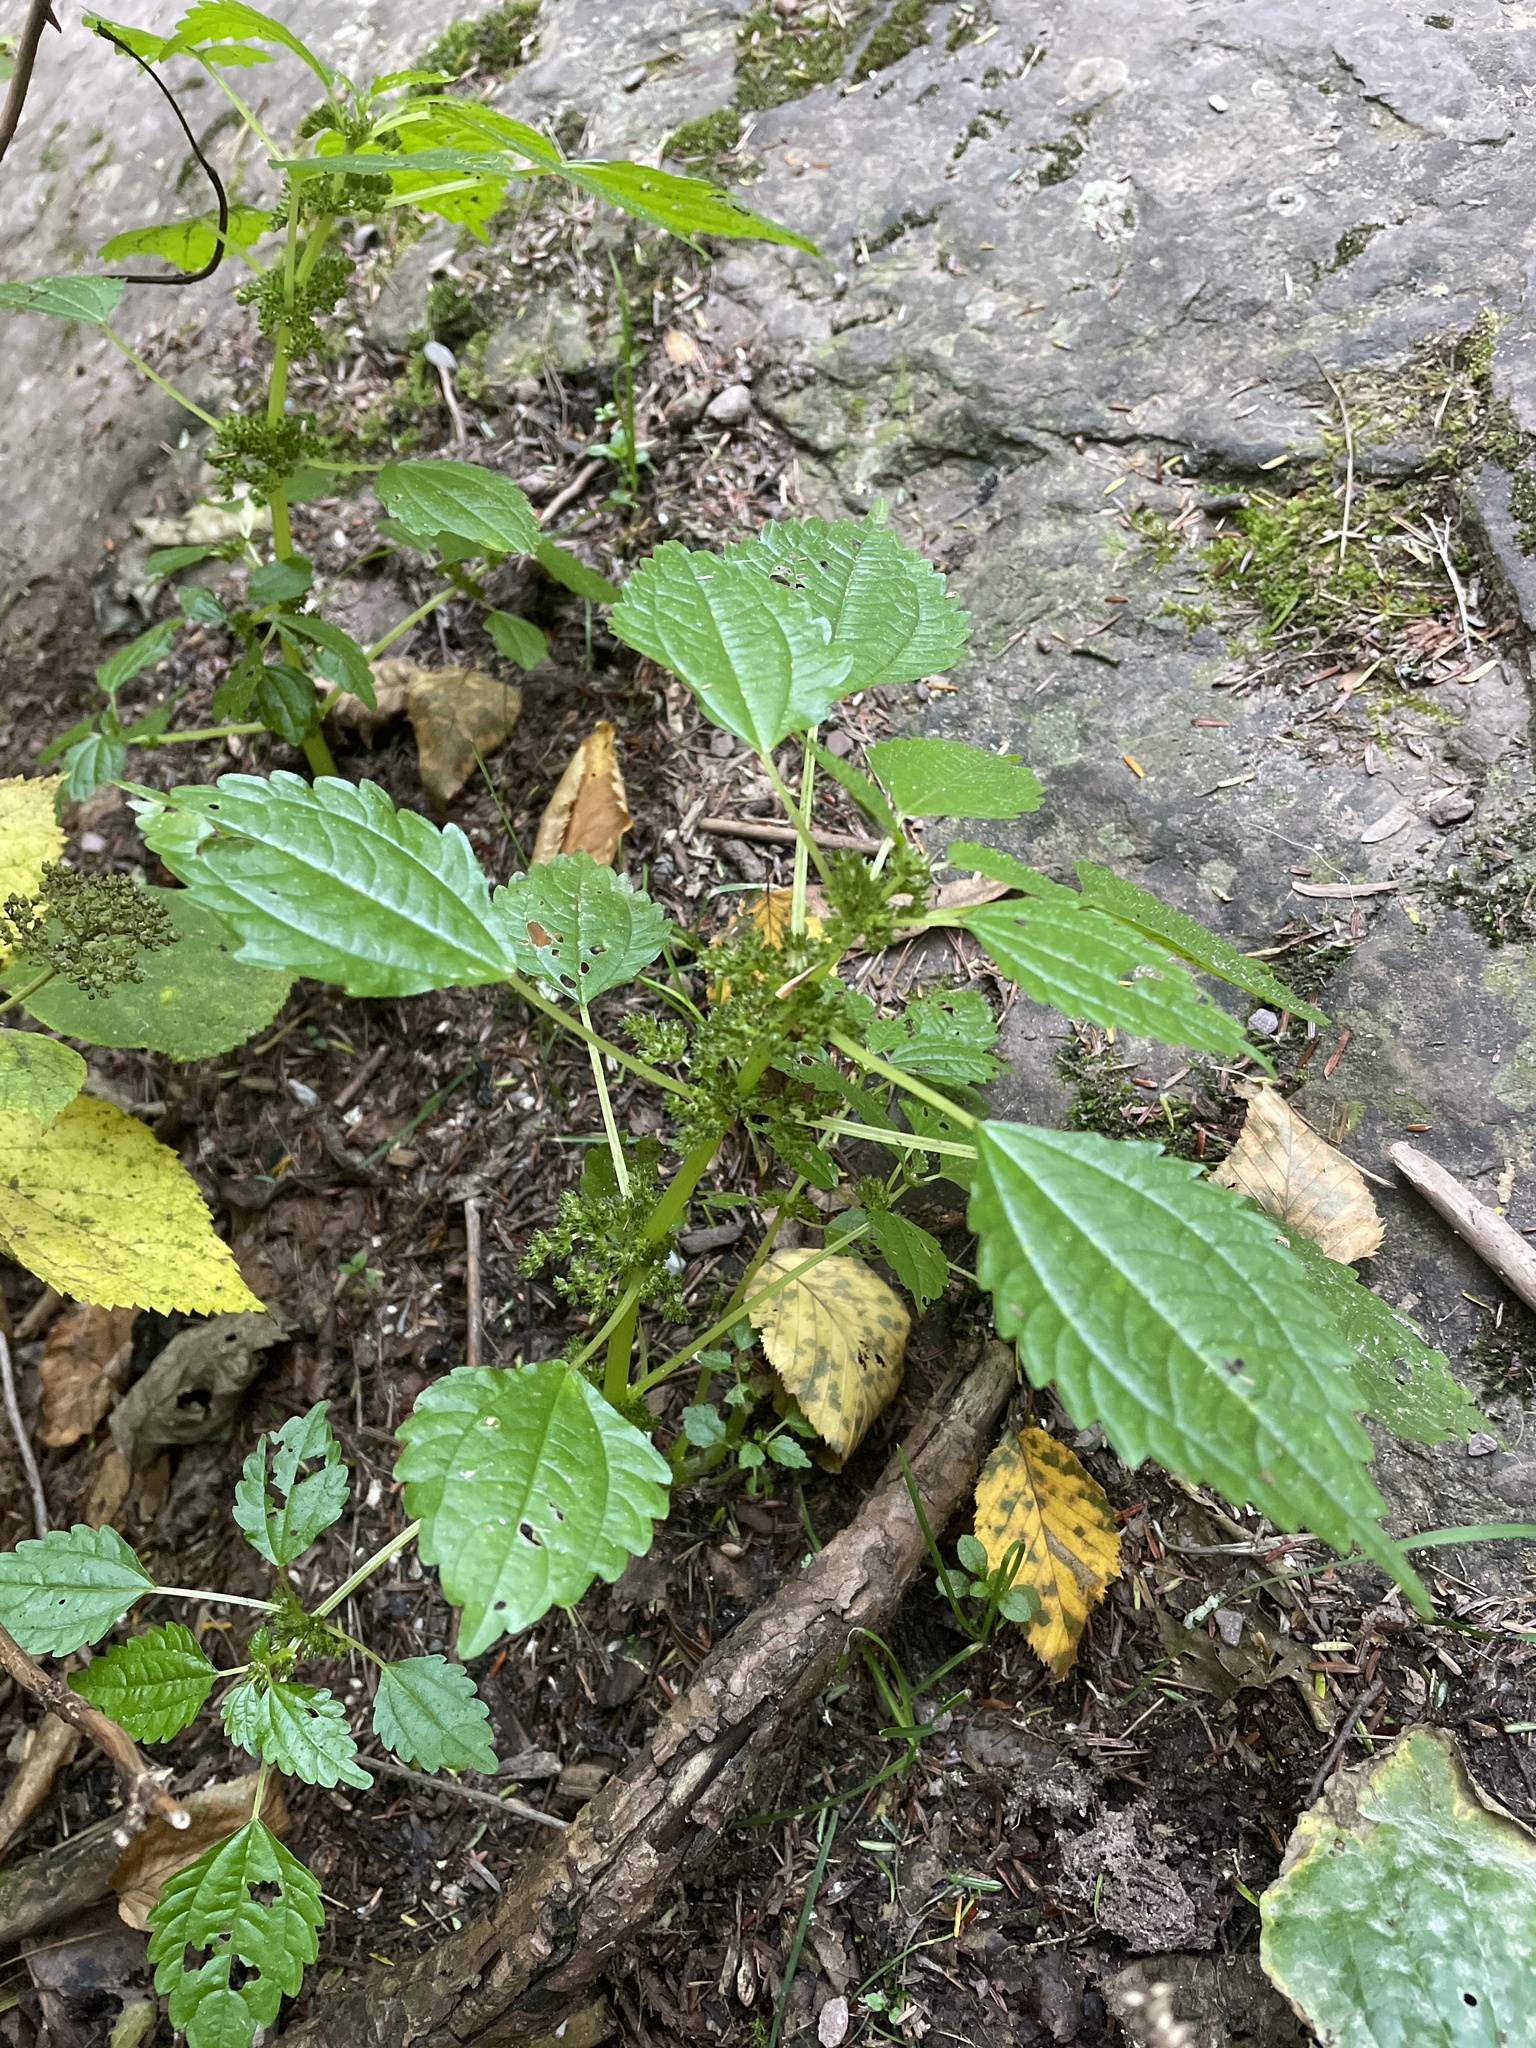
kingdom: Plantae
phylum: Tracheophyta
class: Magnoliopsida
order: Rosales
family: Urticaceae
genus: Pilea
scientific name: Pilea pumila
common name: Clearweed
